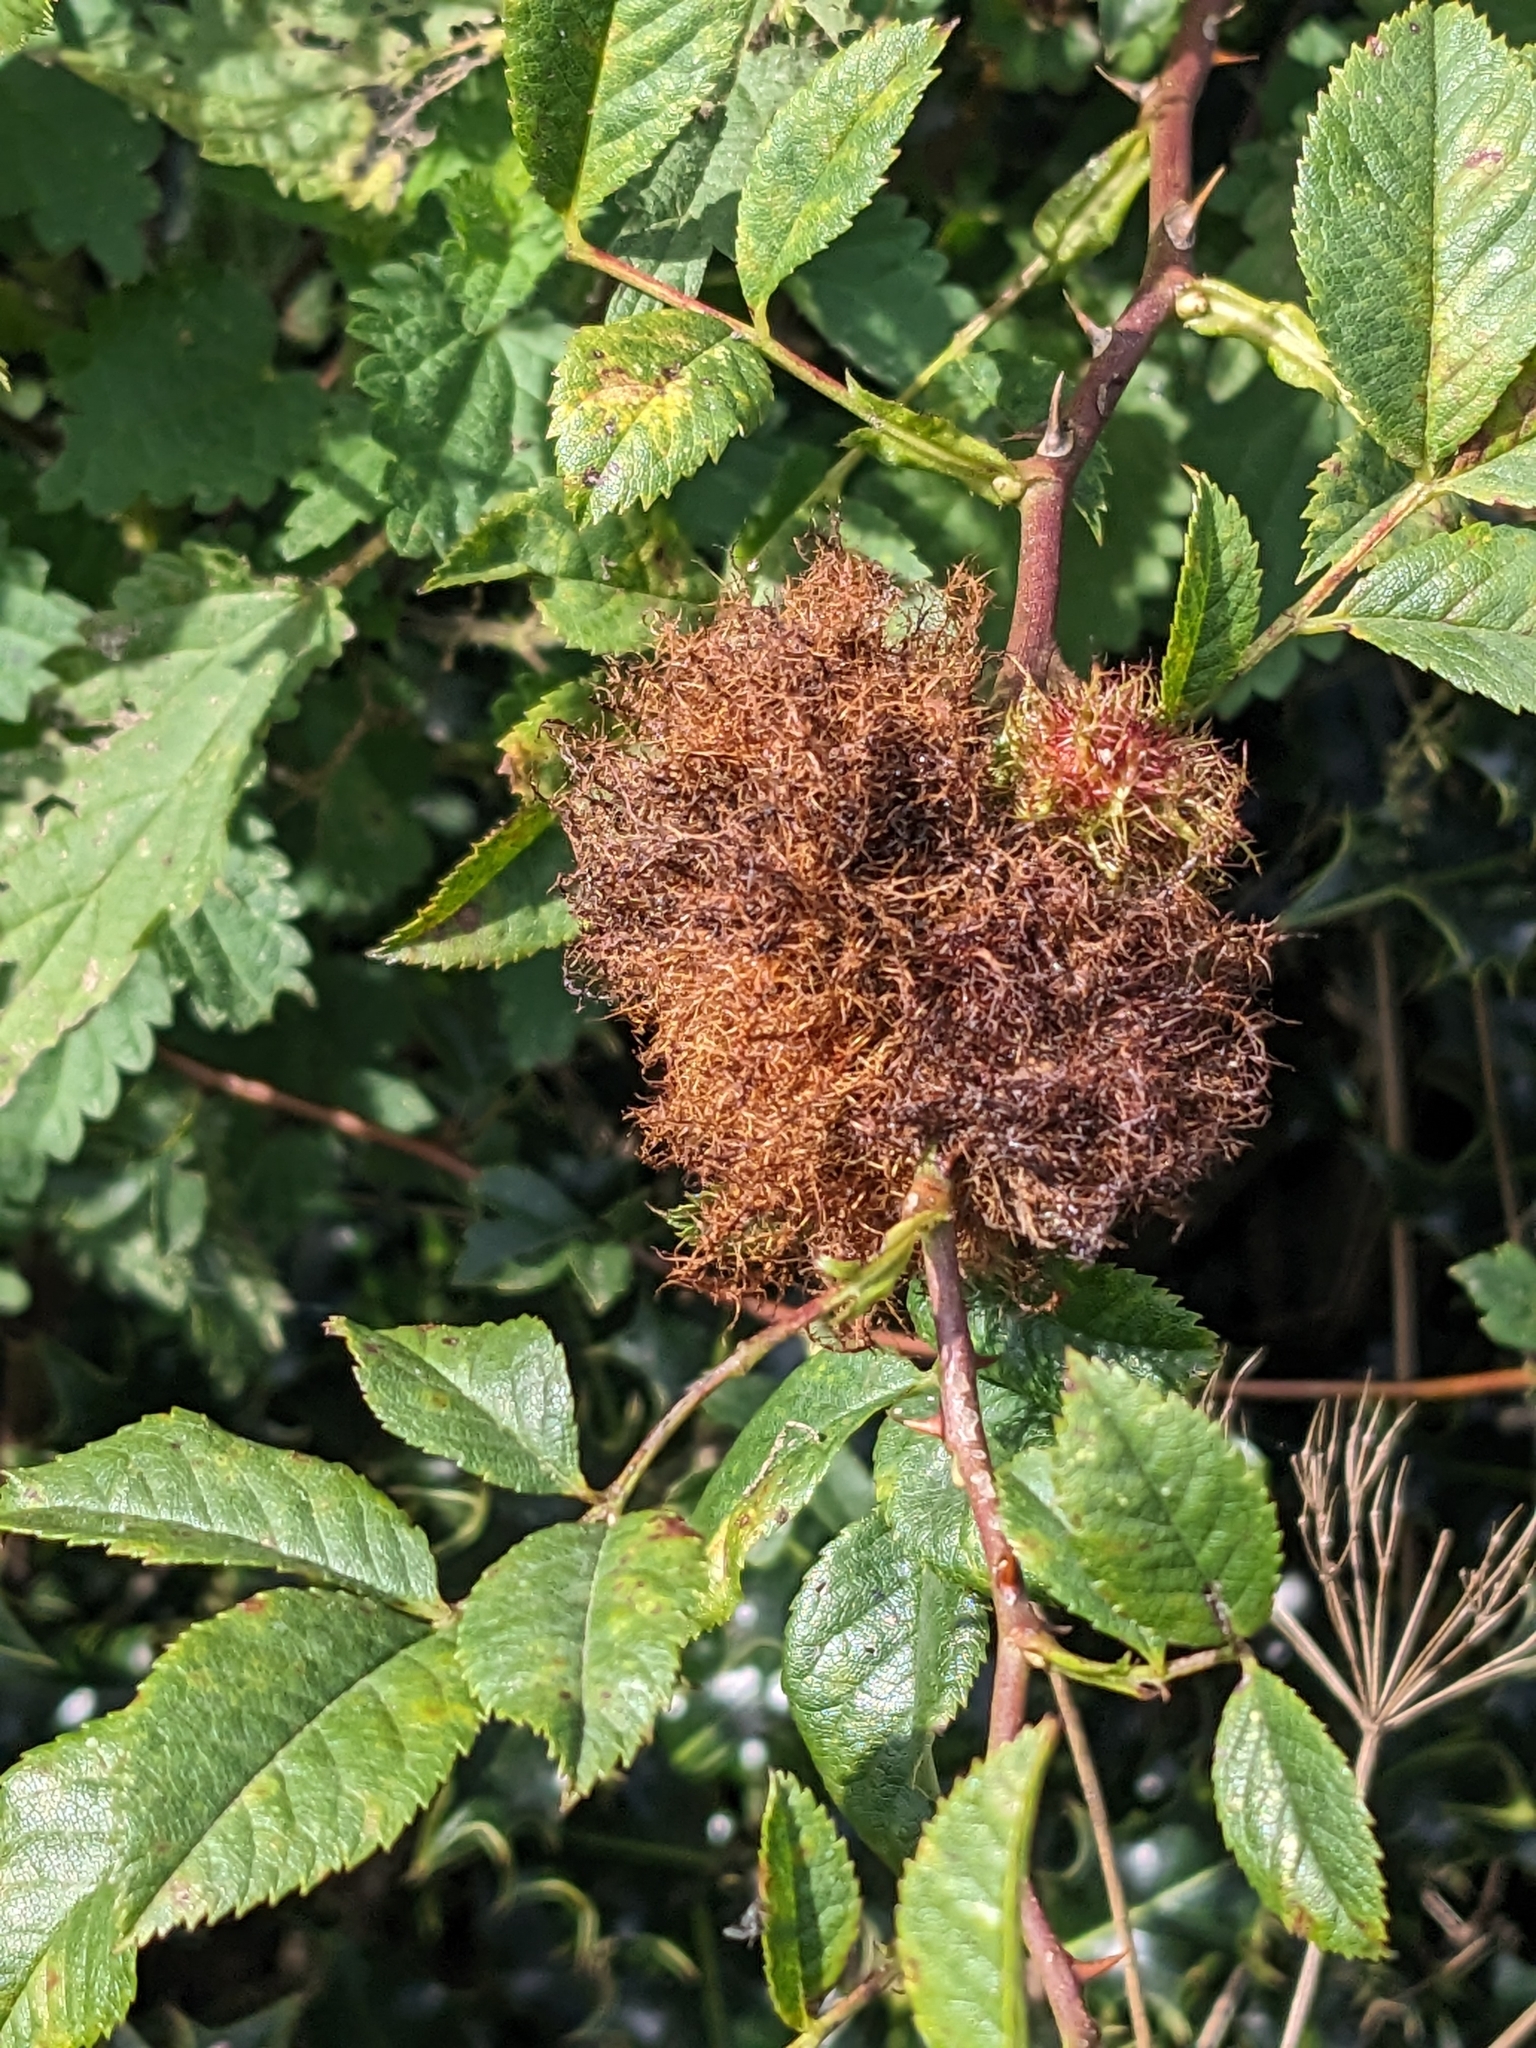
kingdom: Animalia
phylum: Arthropoda
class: Insecta
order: Hymenoptera
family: Cynipidae
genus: Diplolepis
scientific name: Diplolepis rosae
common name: Bedeguar gall
